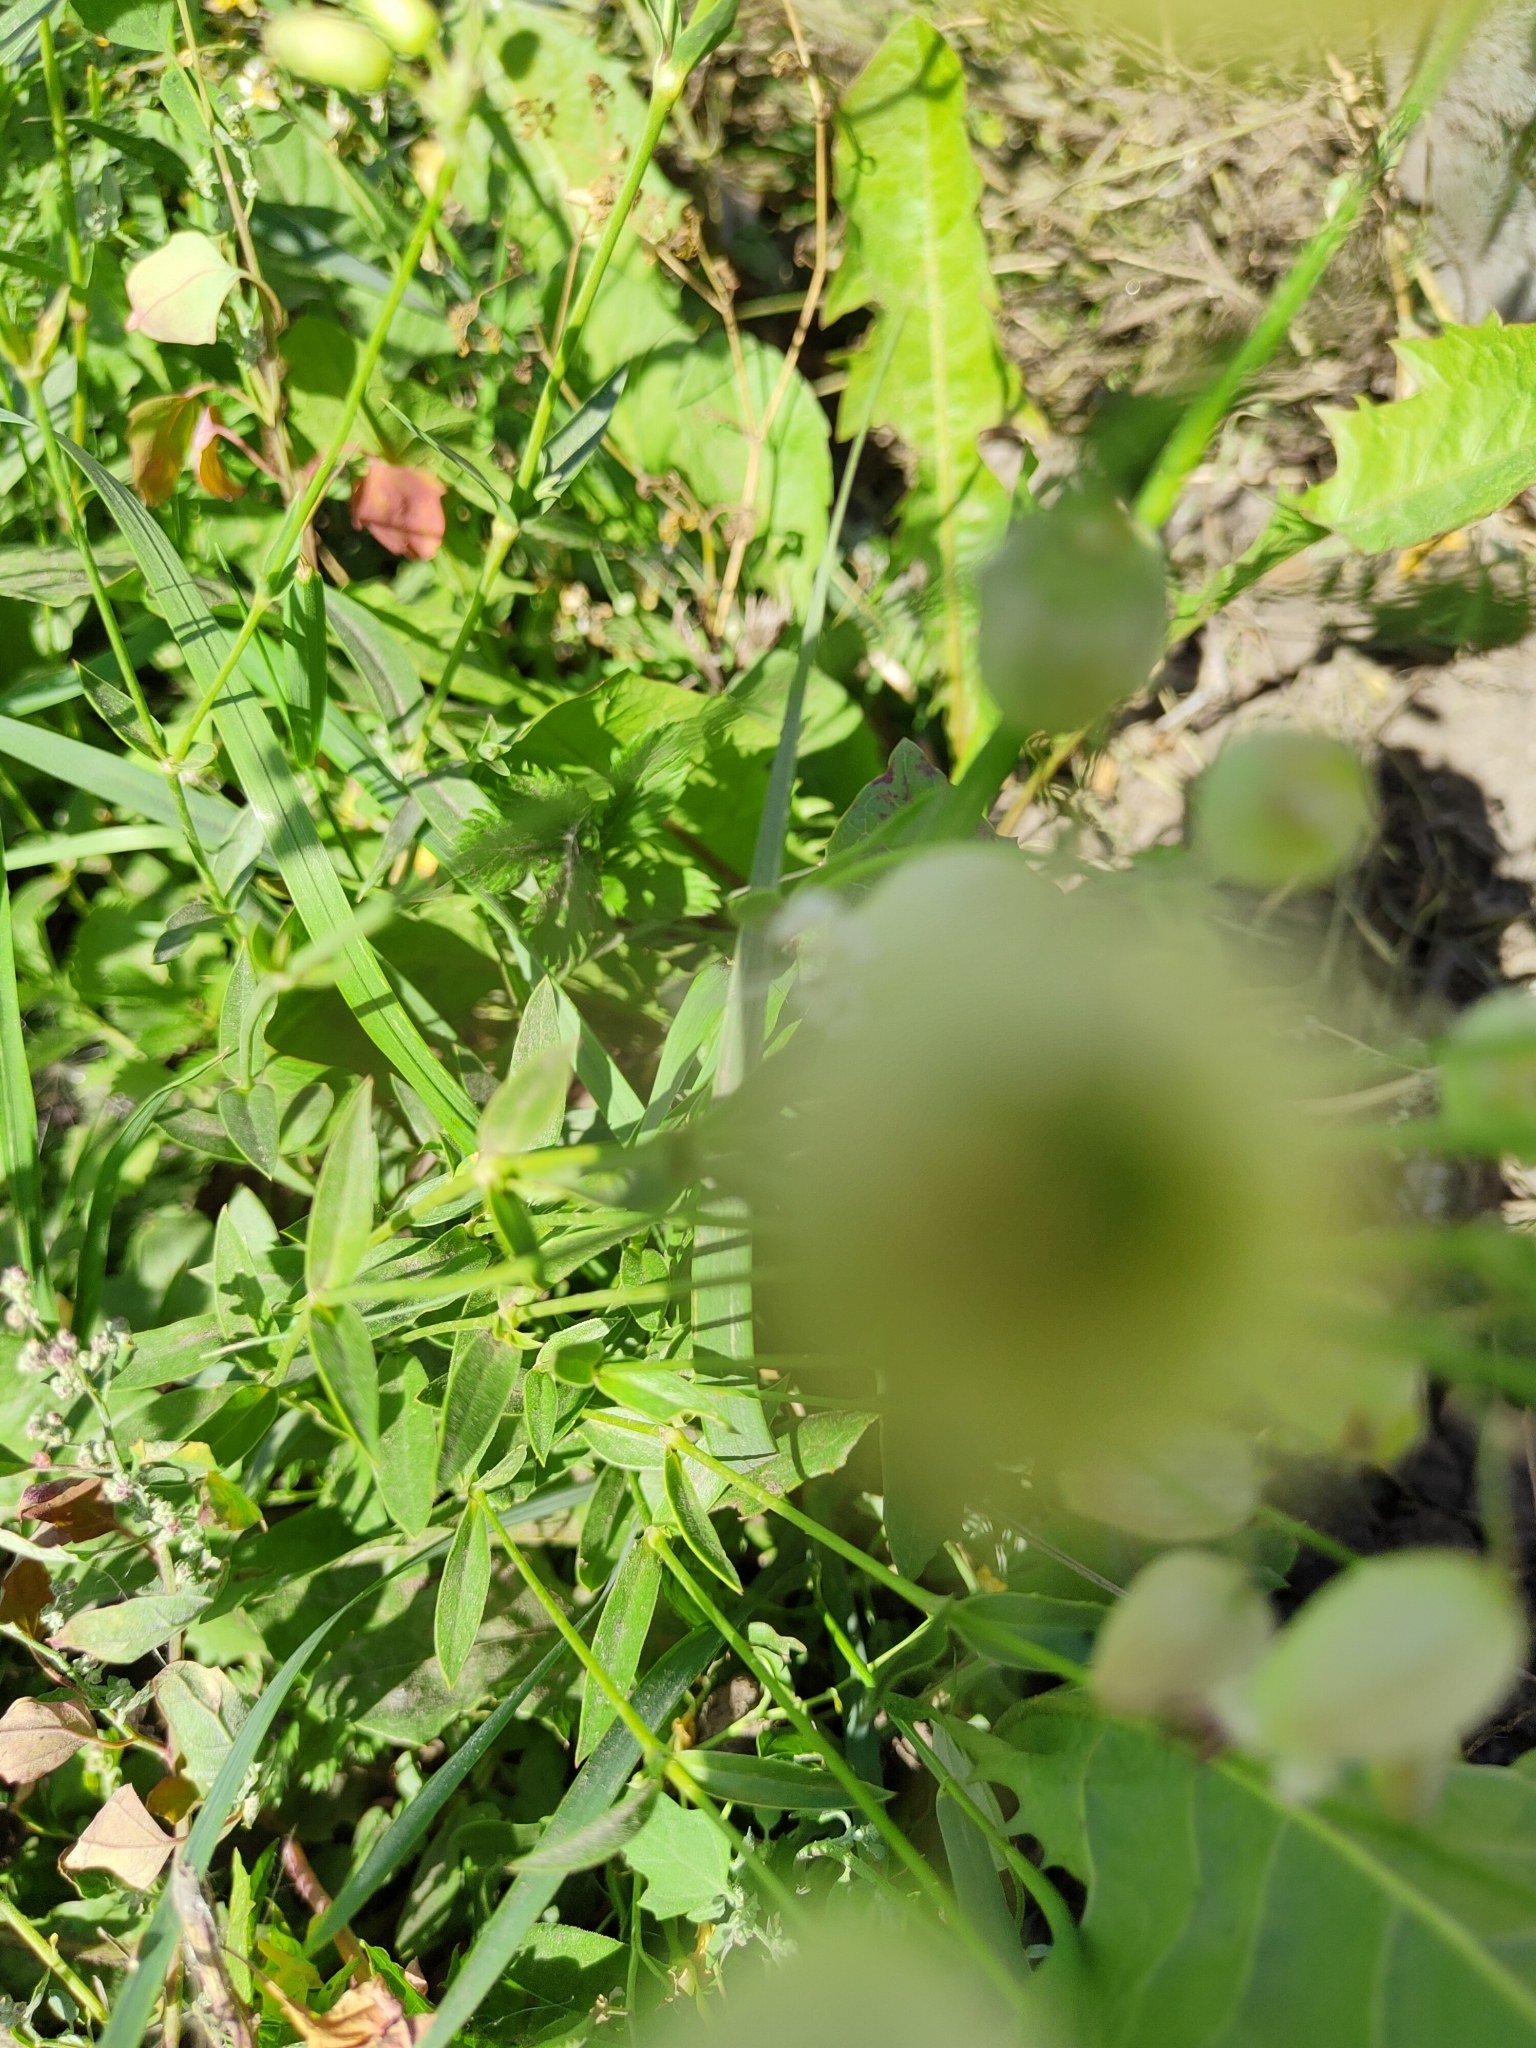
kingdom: Plantae
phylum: Tracheophyta
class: Magnoliopsida
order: Caryophyllales
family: Caryophyllaceae
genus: Silene
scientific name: Silene vulgaris
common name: Bladder campion
